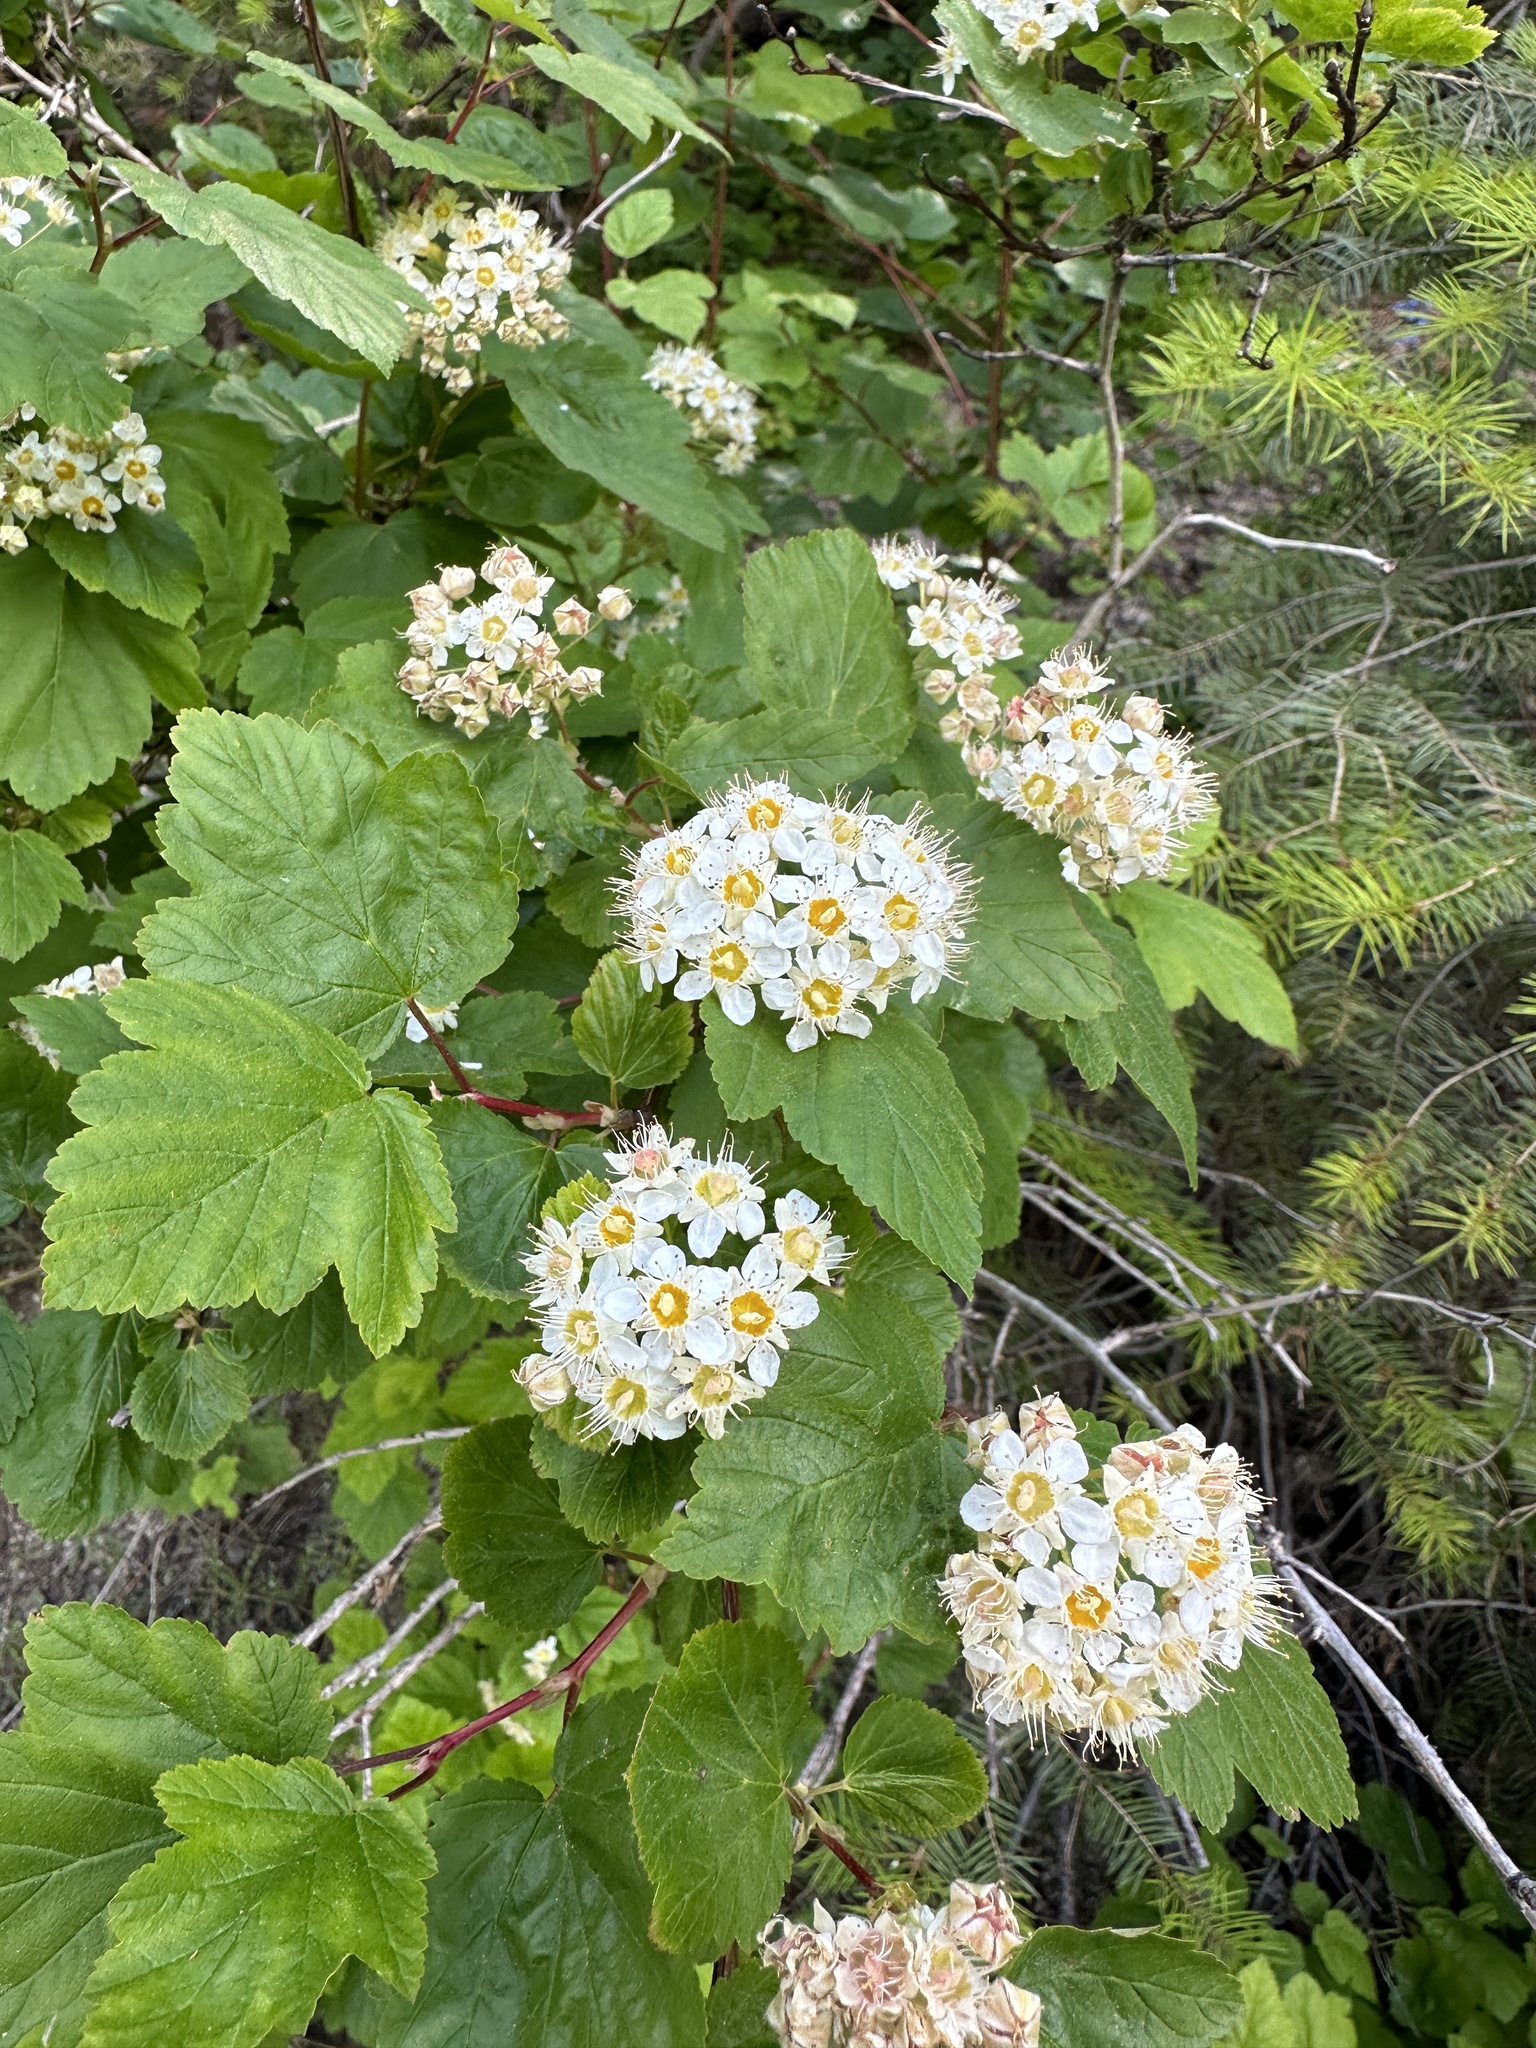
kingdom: Plantae
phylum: Tracheophyta
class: Magnoliopsida
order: Rosales
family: Rosaceae
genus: Physocarpus
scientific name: Physocarpus malvaceus
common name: Mallow ninebark
